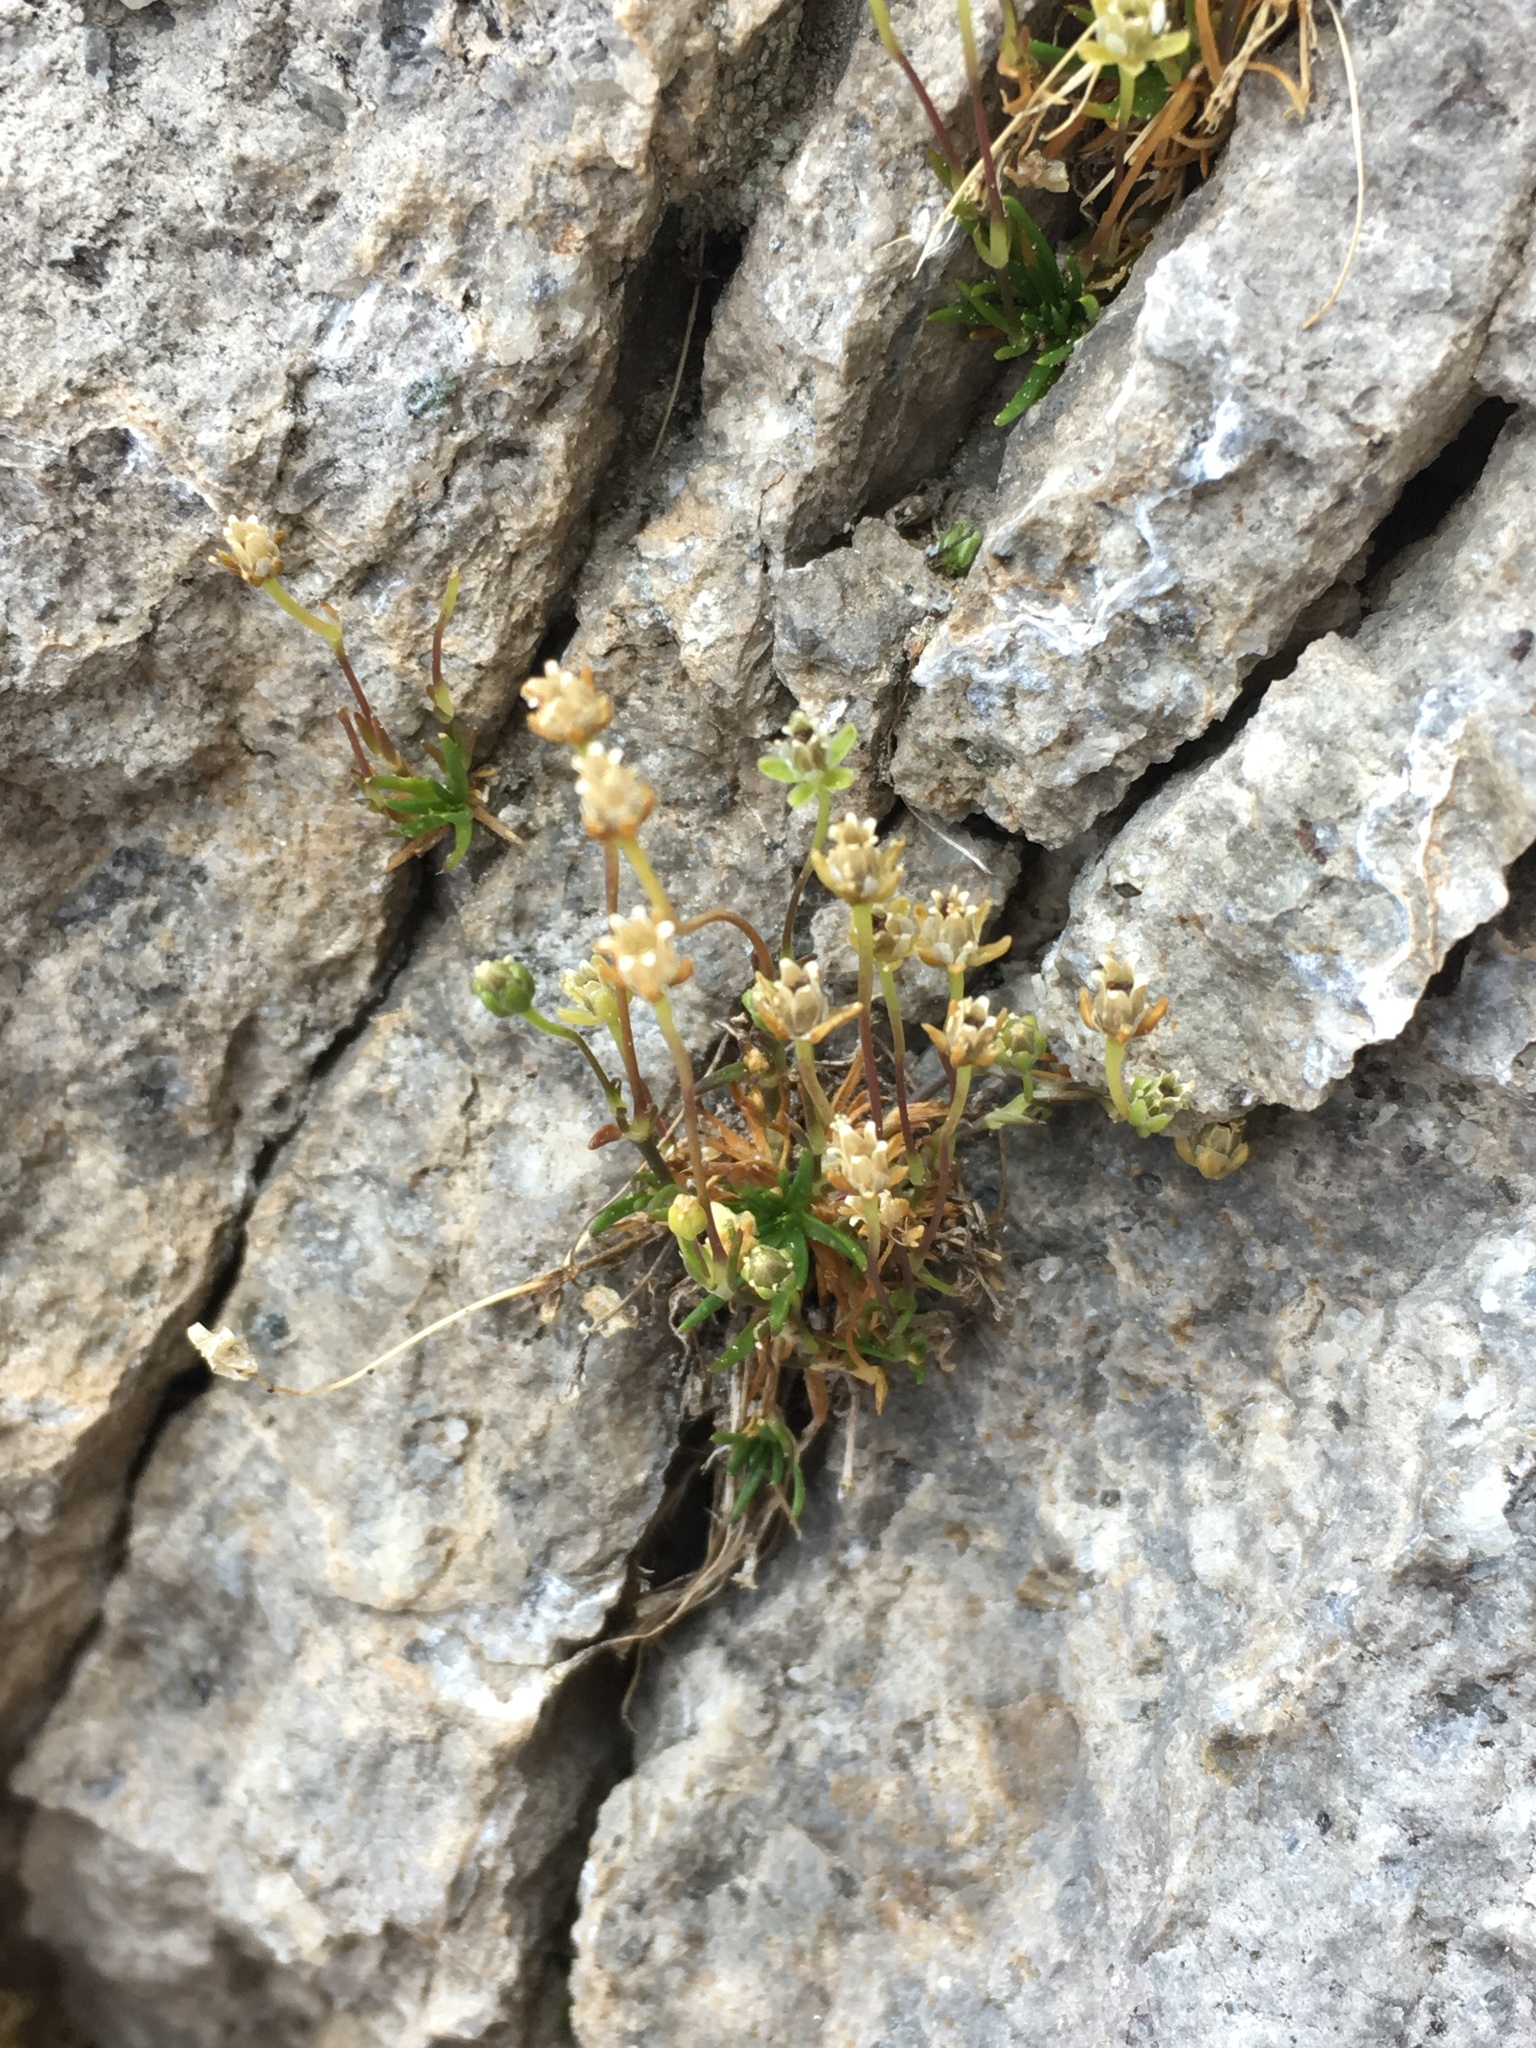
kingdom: Plantae
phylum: Tracheophyta
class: Magnoliopsida
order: Caryophyllales
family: Caryophyllaceae
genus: Sagina
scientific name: Sagina saginoides
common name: Alpine pearlwort
